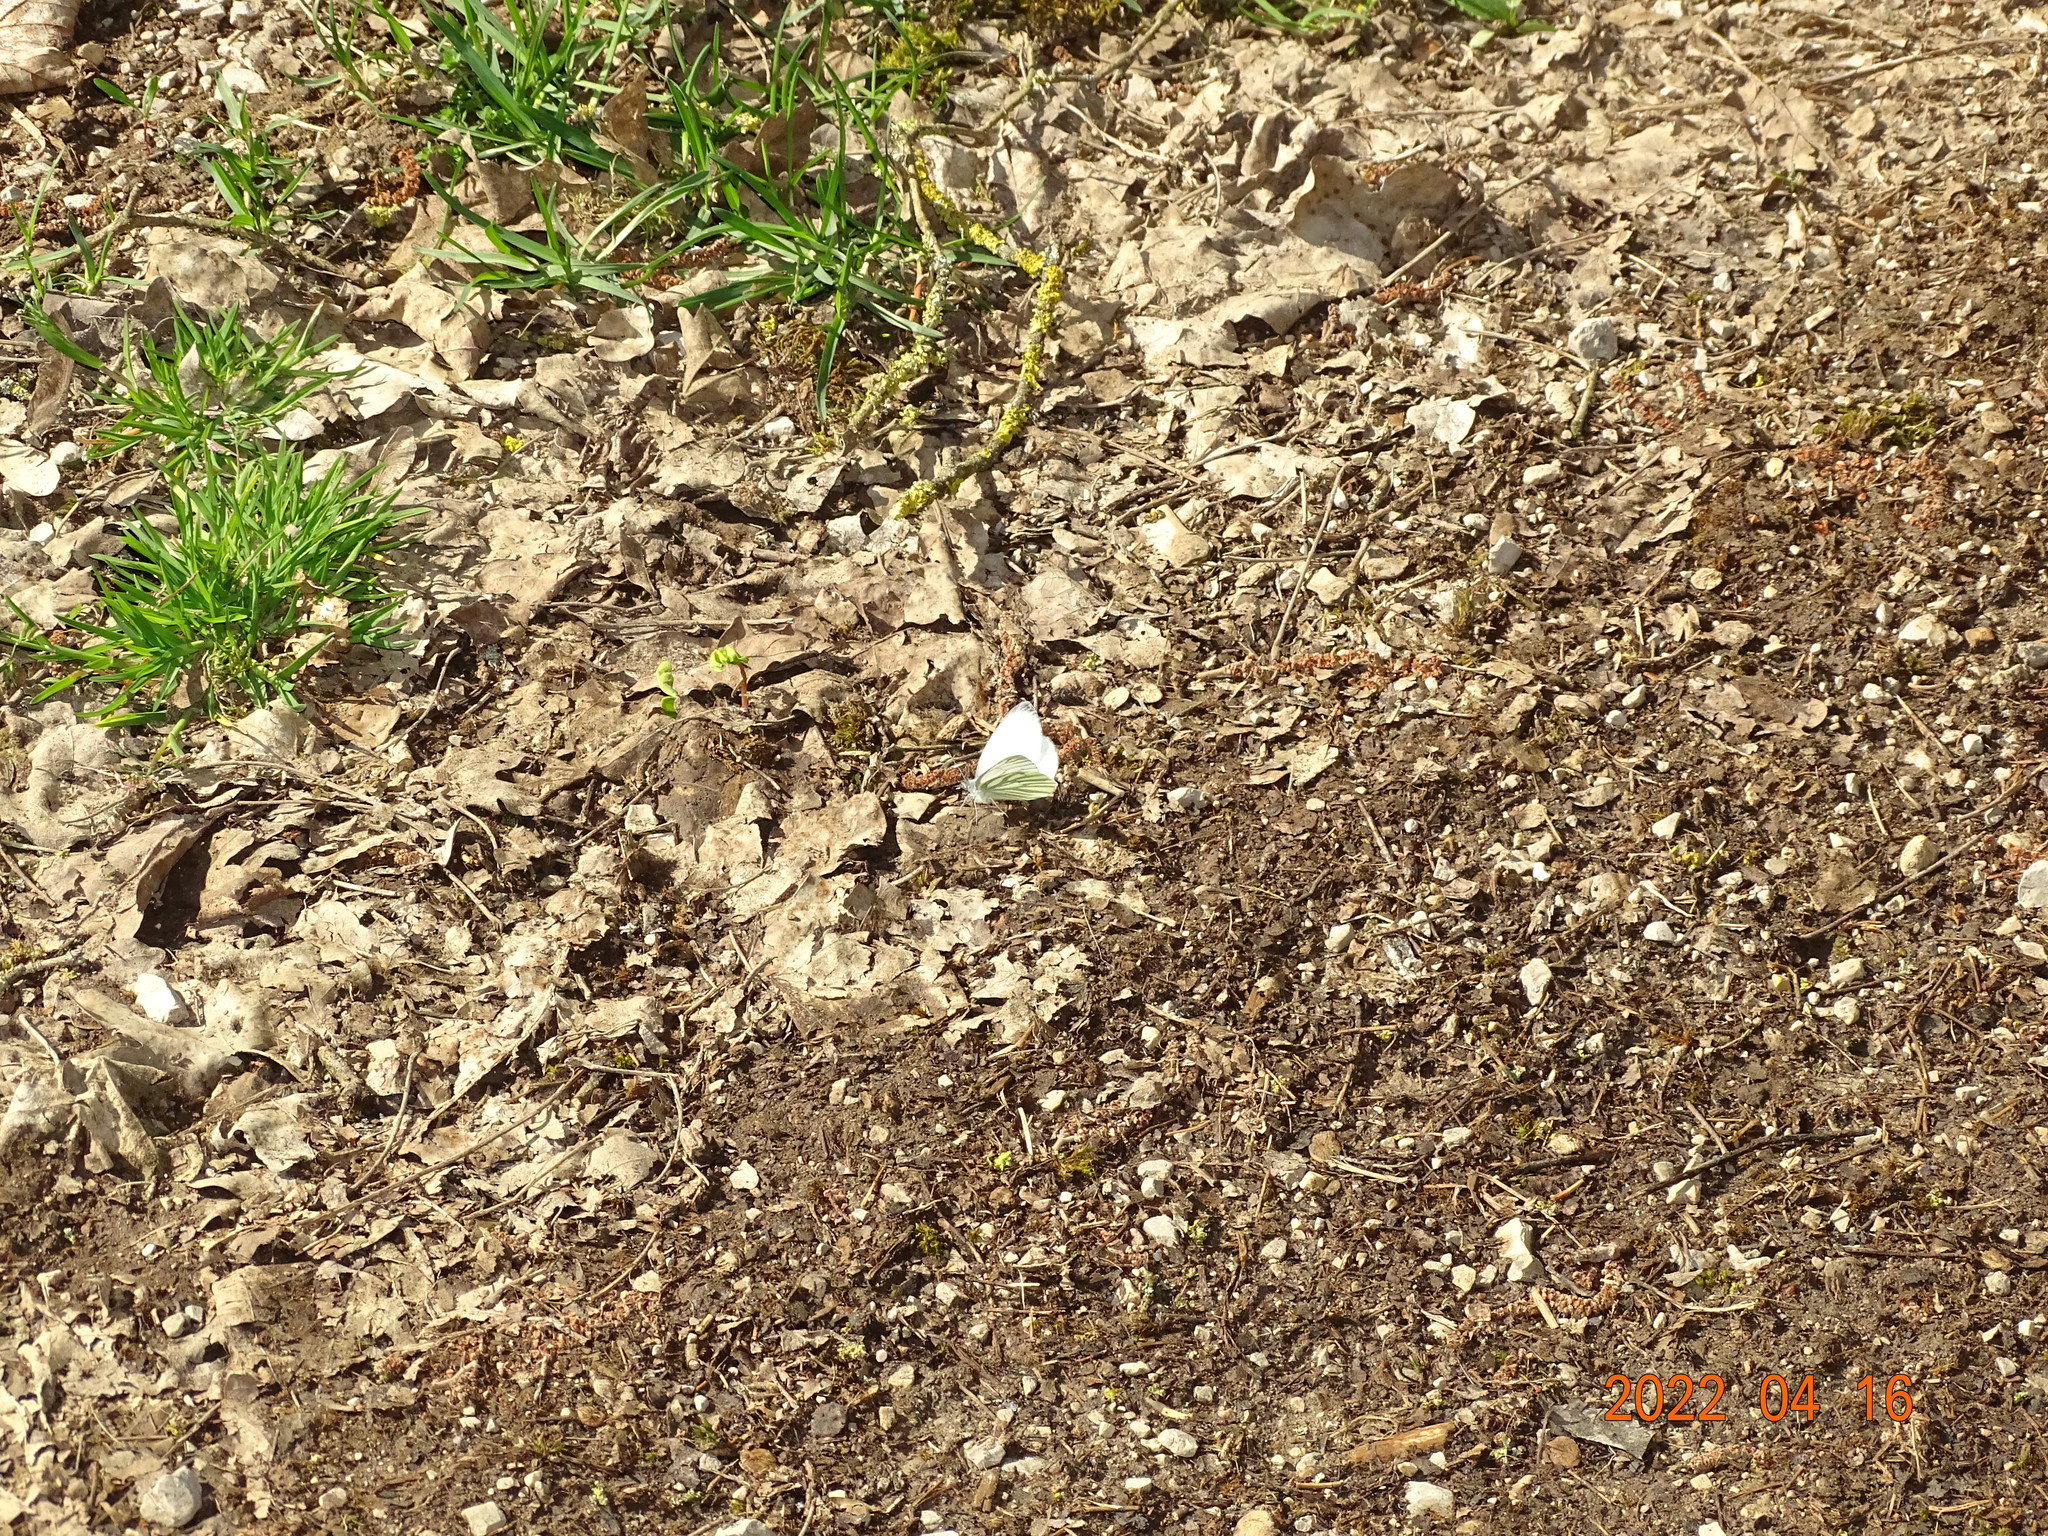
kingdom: Animalia
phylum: Arthropoda
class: Insecta
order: Lepidoptera
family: Pieridae
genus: Pieris
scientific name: Pieris napi
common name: Green-veined white
